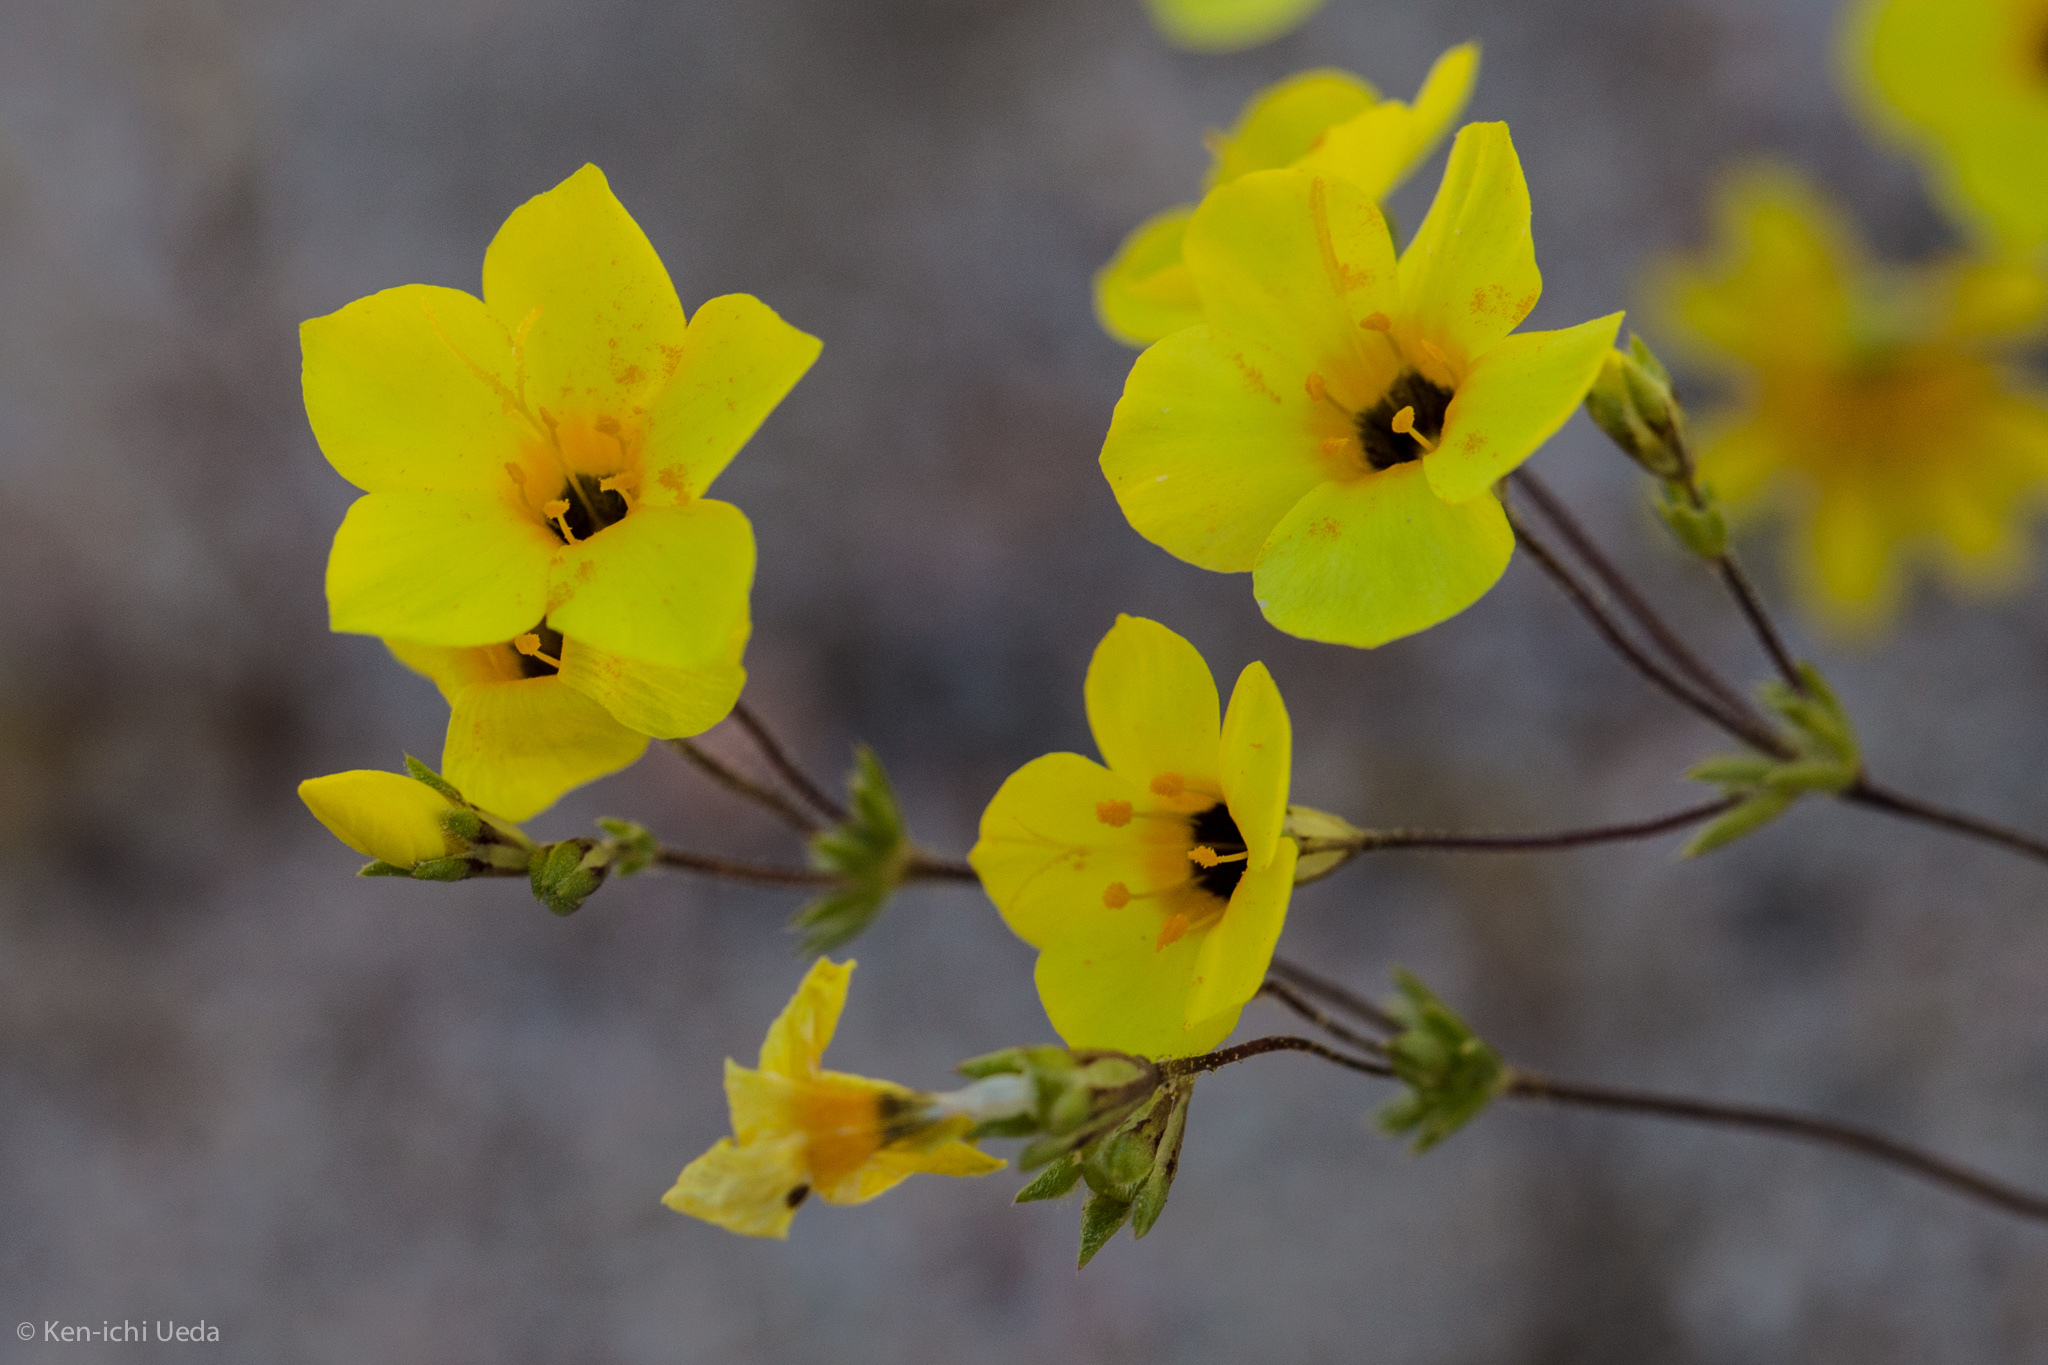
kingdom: Plantae
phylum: Tracheophyta
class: Magnoliopsida
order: Ericales
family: Polemoniaceae
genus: Leptosiphon
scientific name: Leptosiphon chrysanthus
